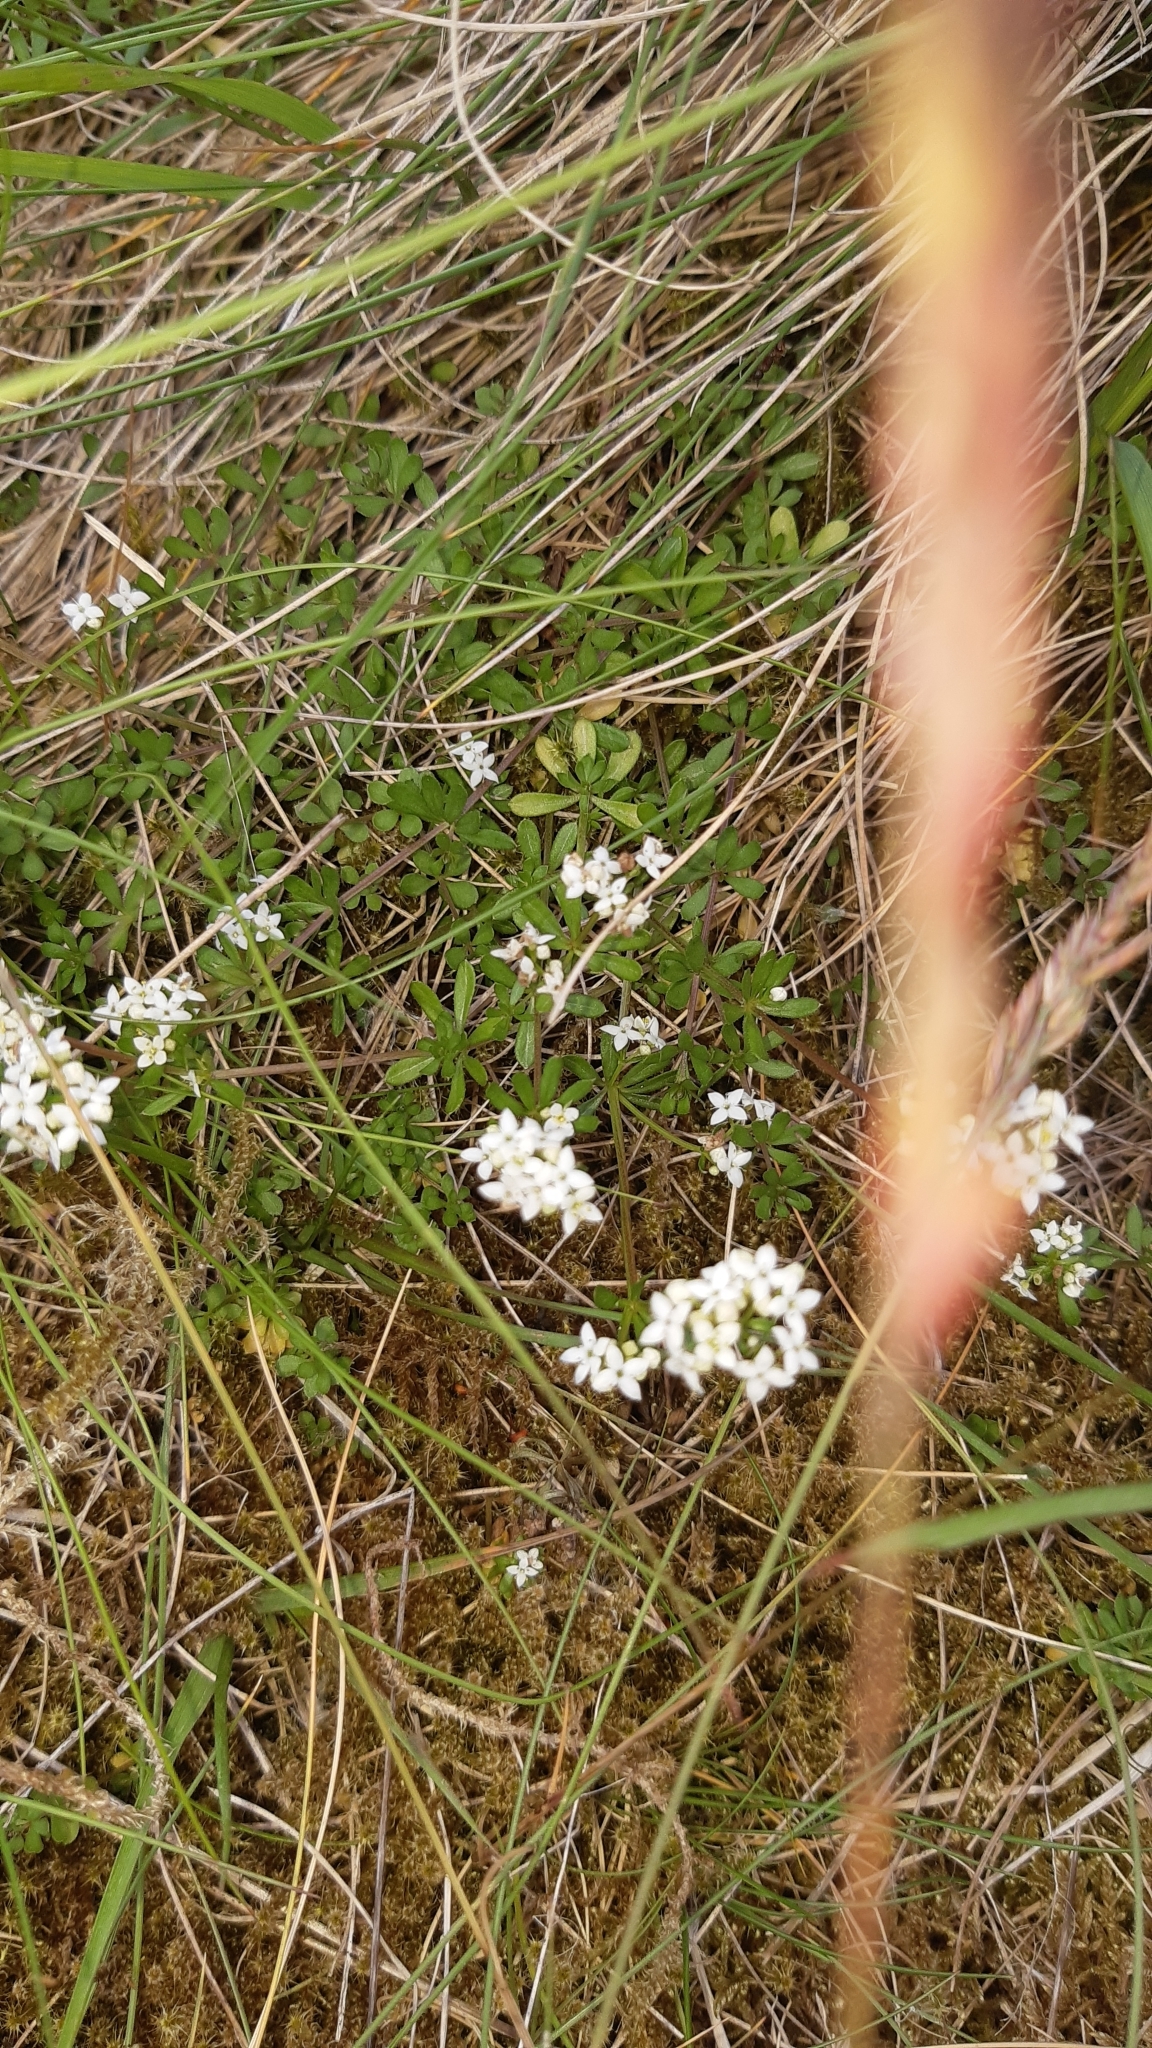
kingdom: Plantae
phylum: Tracheophyta
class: Magnoliopsida
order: Gentianales
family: Rubiaceae
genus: Galium
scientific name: Galium saxatile
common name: Heath bedstraw
